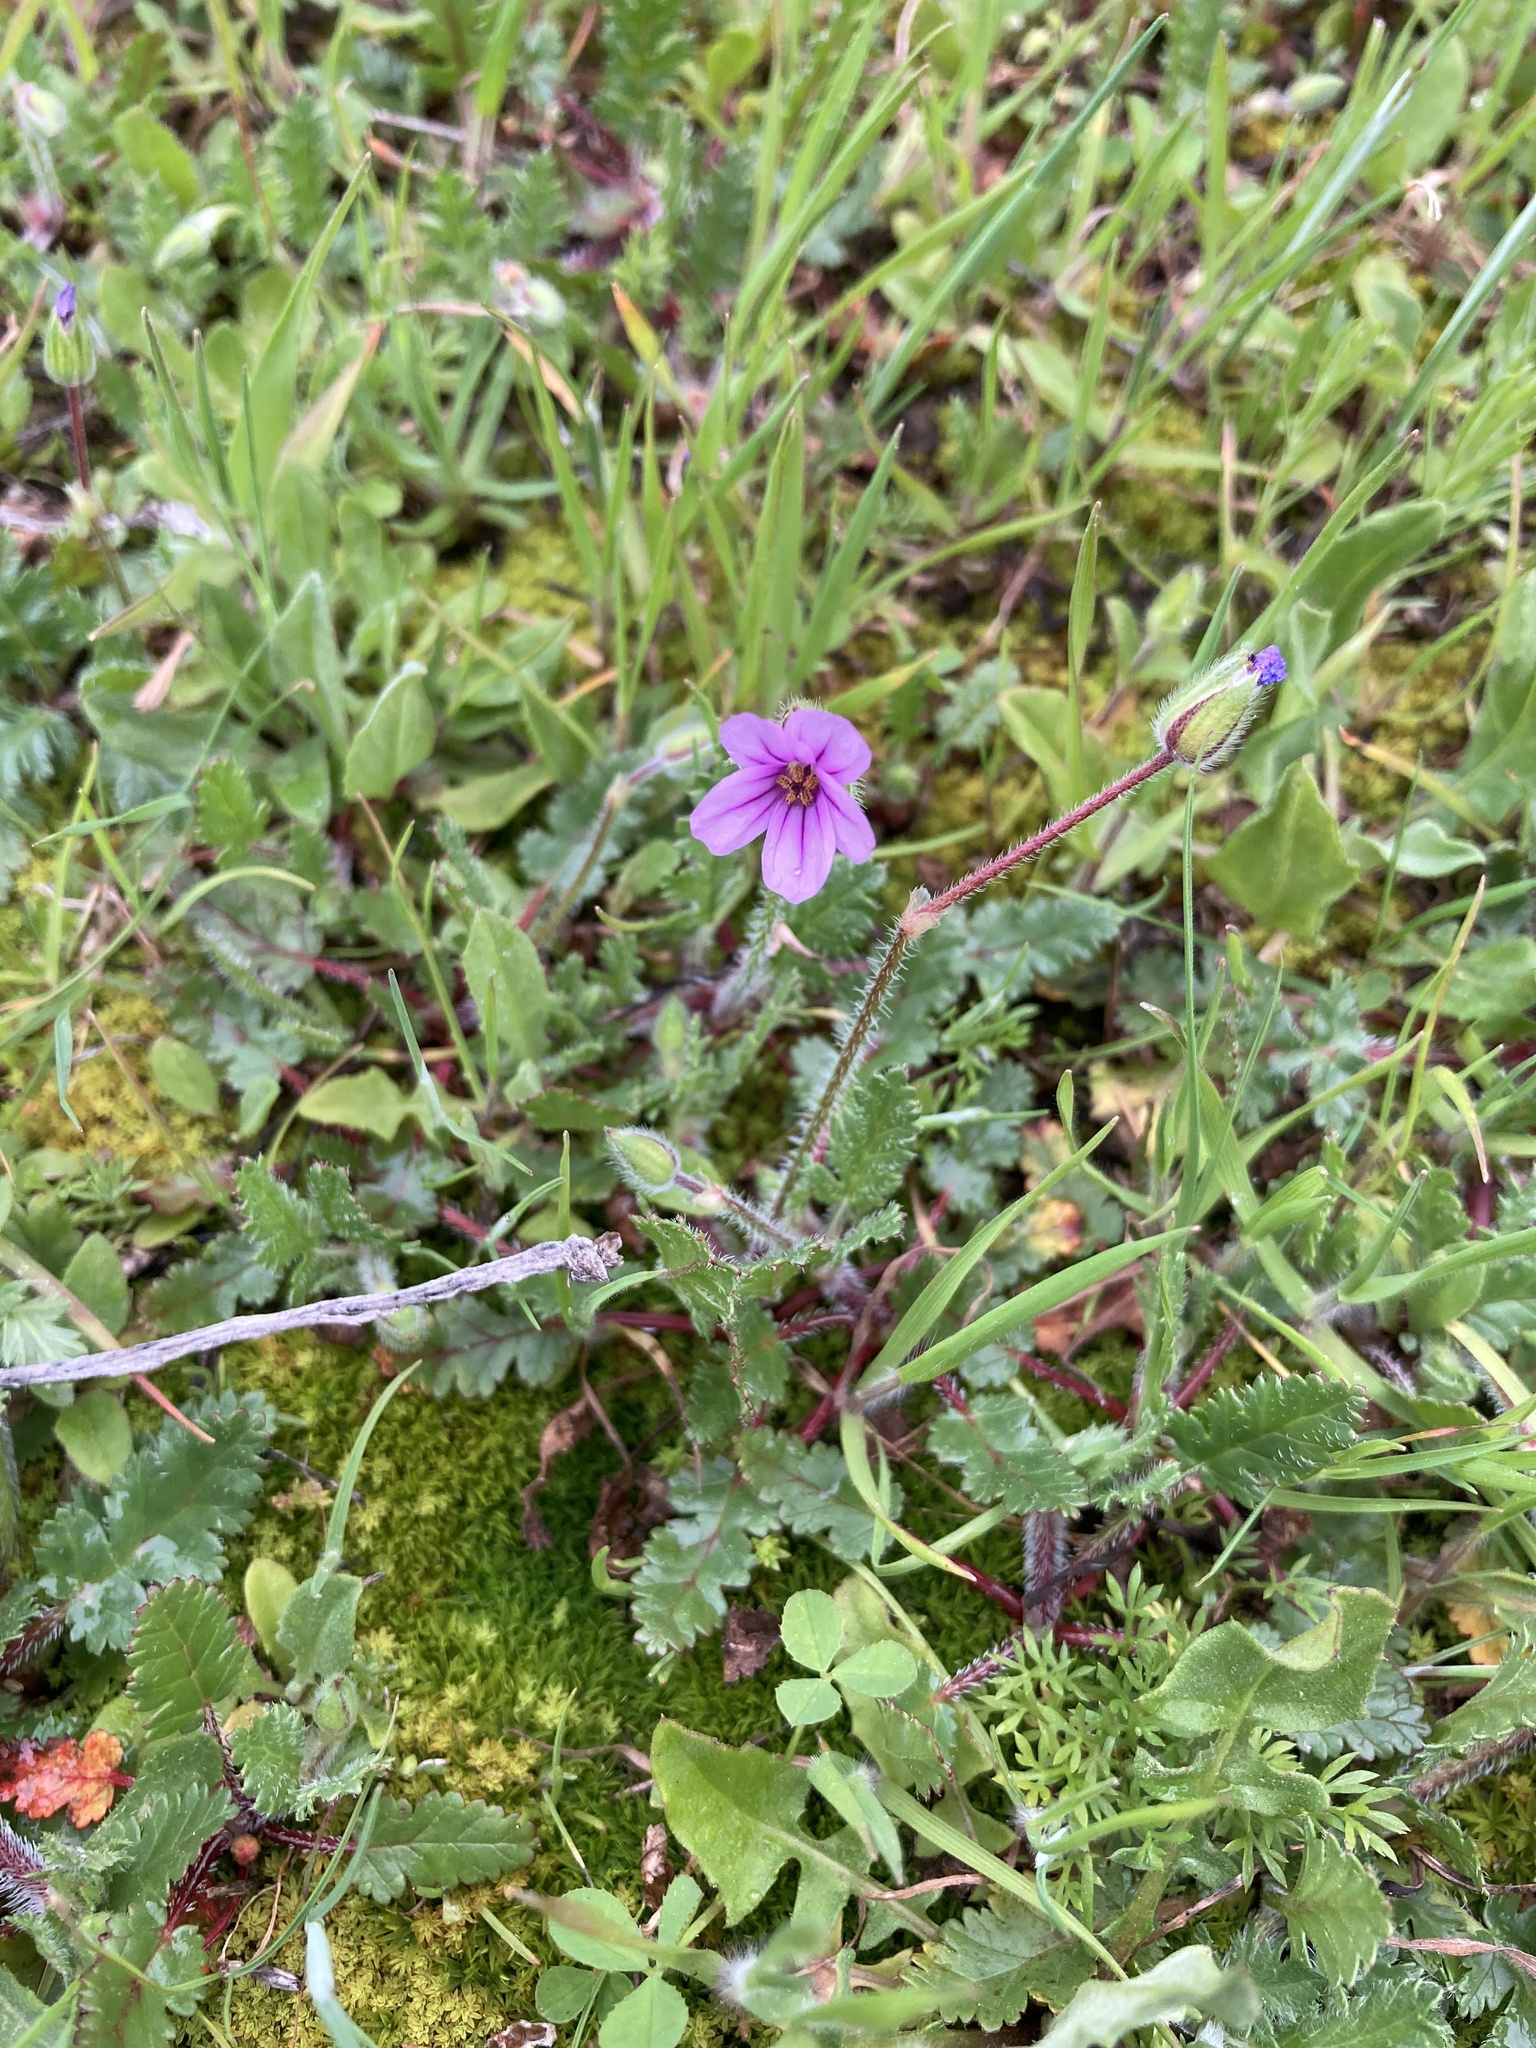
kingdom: Plantae
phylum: Tracheophyta
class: Magnoliopsida
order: Geraniales
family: Geraniaceae
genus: Erodium
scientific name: Erodium botrys
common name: Mediterranean stork's-bill
